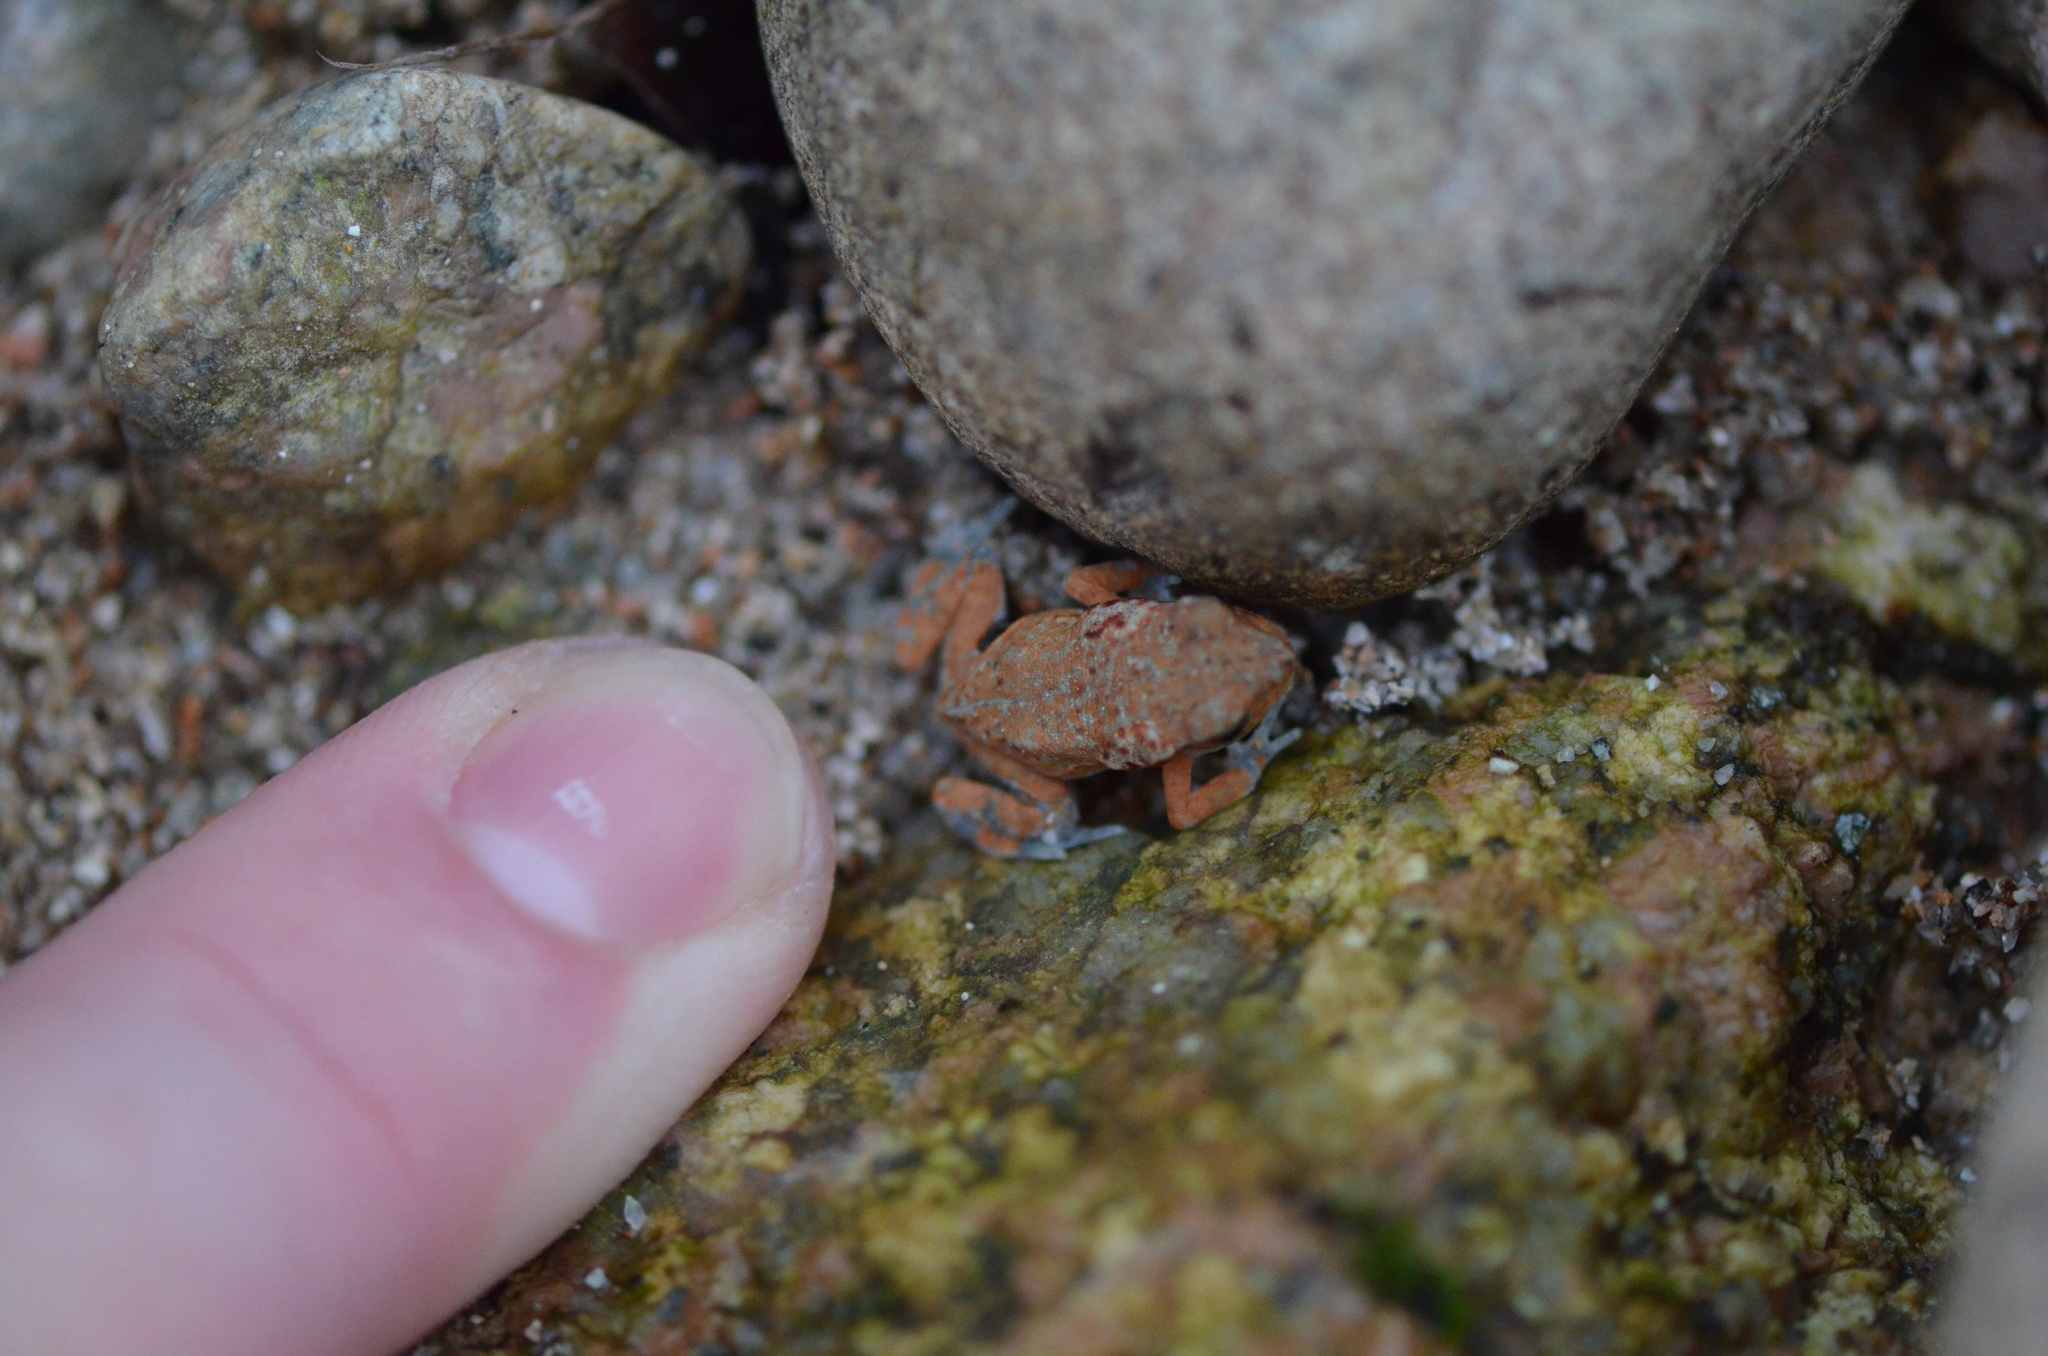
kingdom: Animalia
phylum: Chordata
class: Amphibia
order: Anura
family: Bufonidae
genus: Rhaebo
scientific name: Rhaebo ecuadorensis
